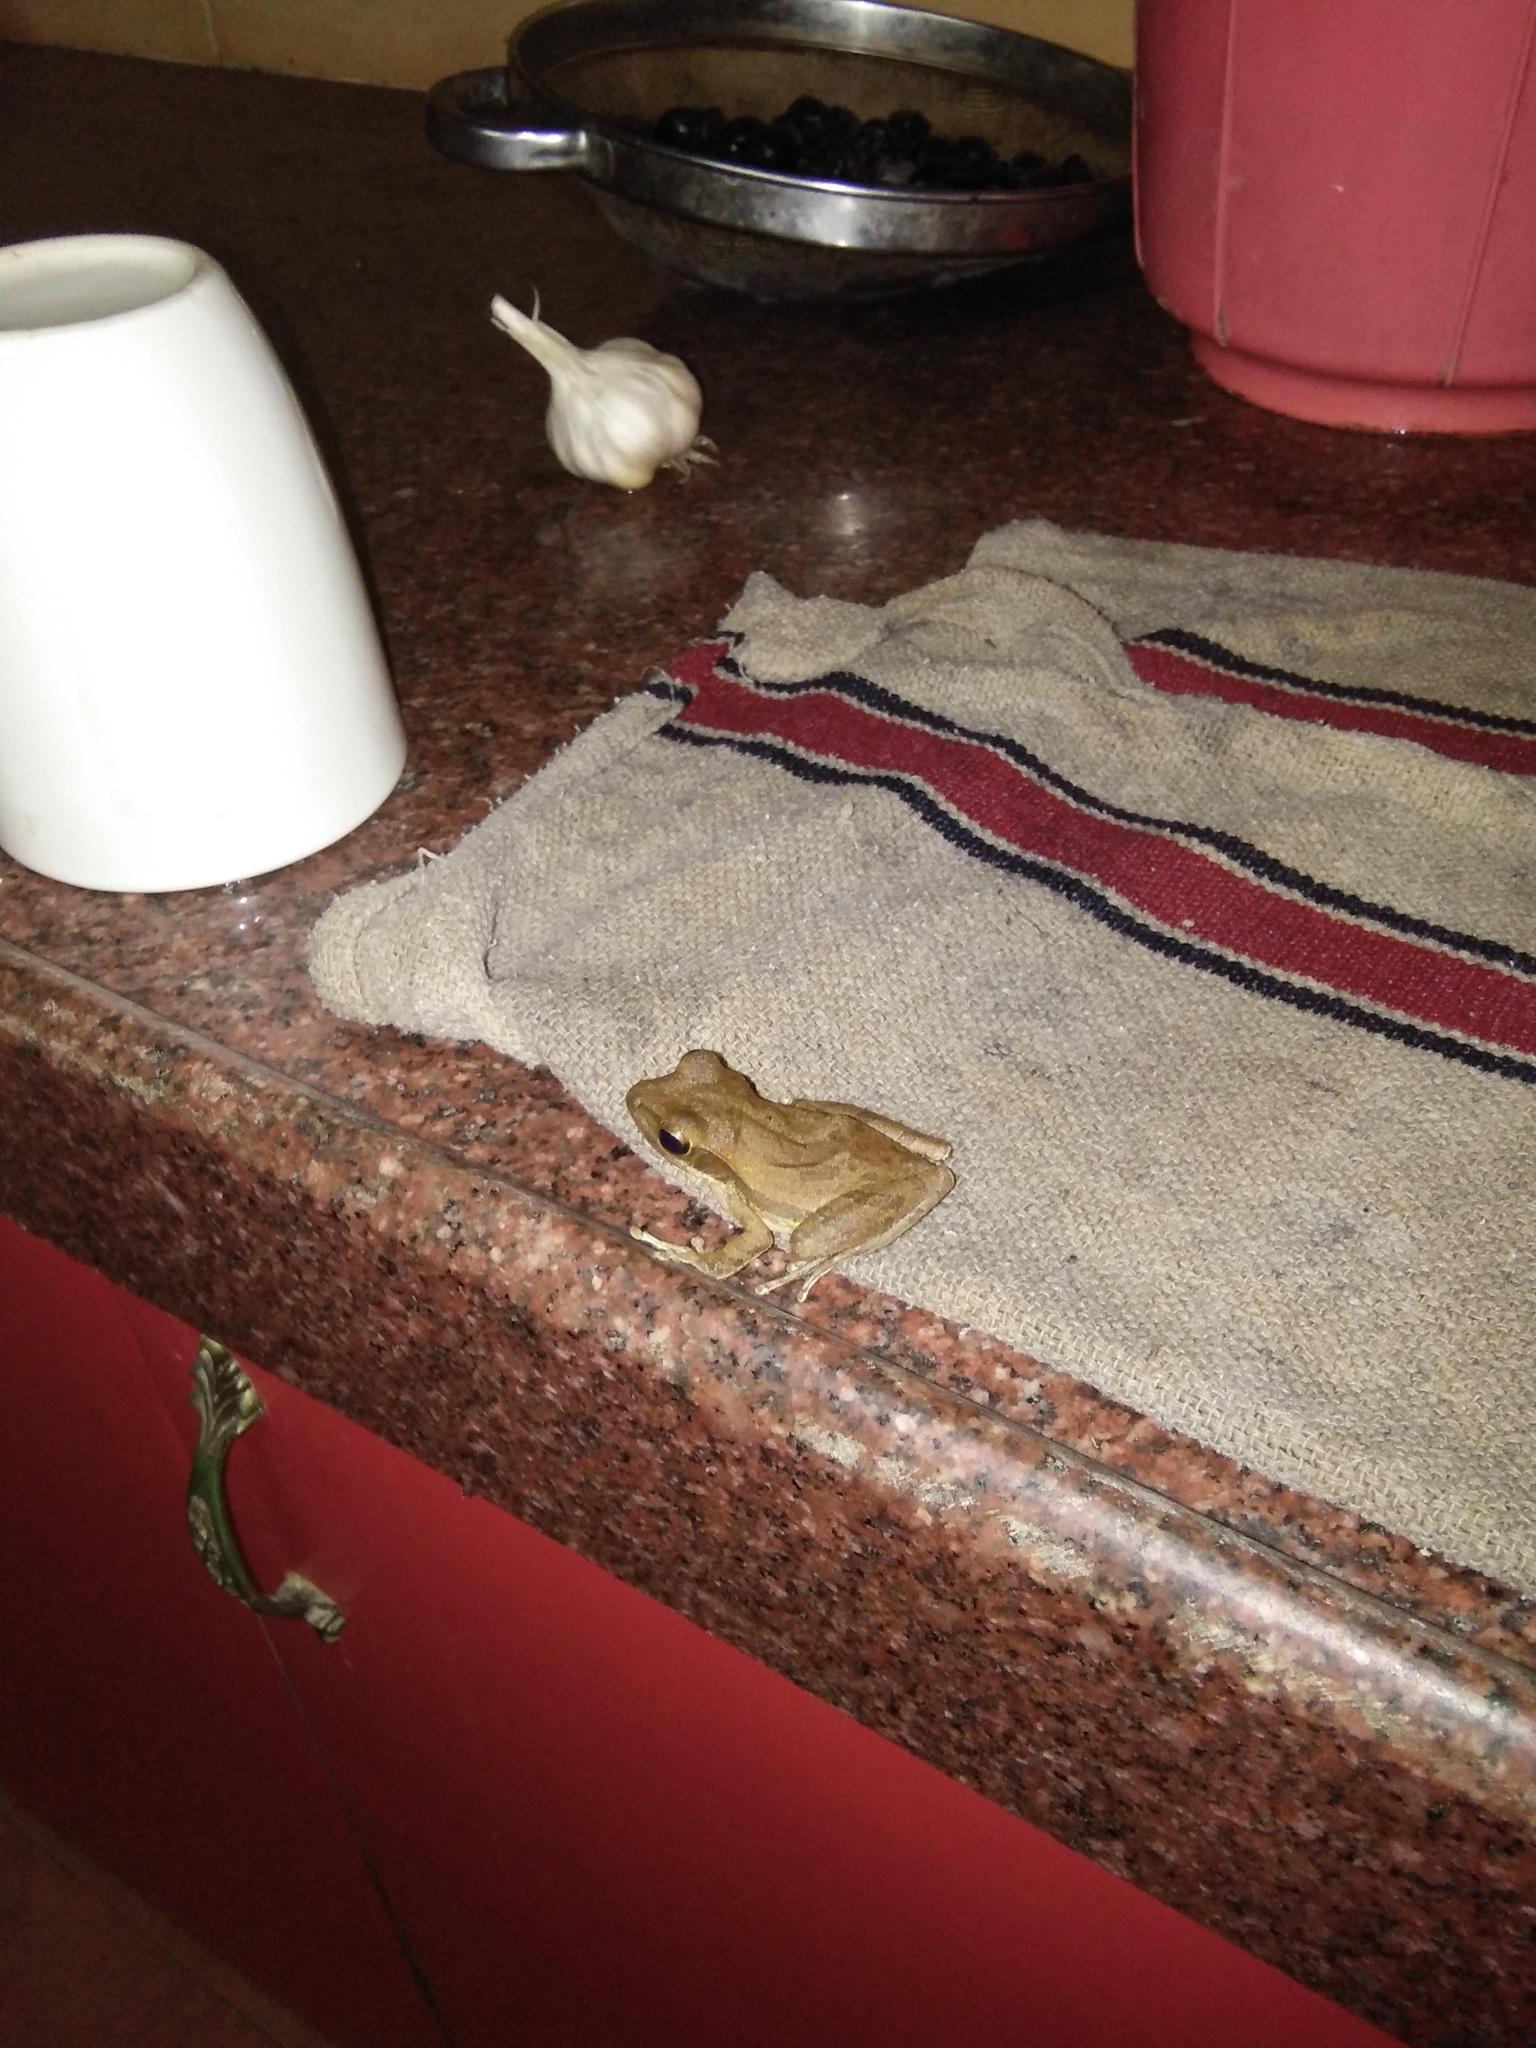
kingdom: Animalia
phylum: Chordata
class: Amphibia
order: Anura
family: Rhacophoridae
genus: Polypedates
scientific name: Polypedates maculatus
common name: Himalayan tree frog
